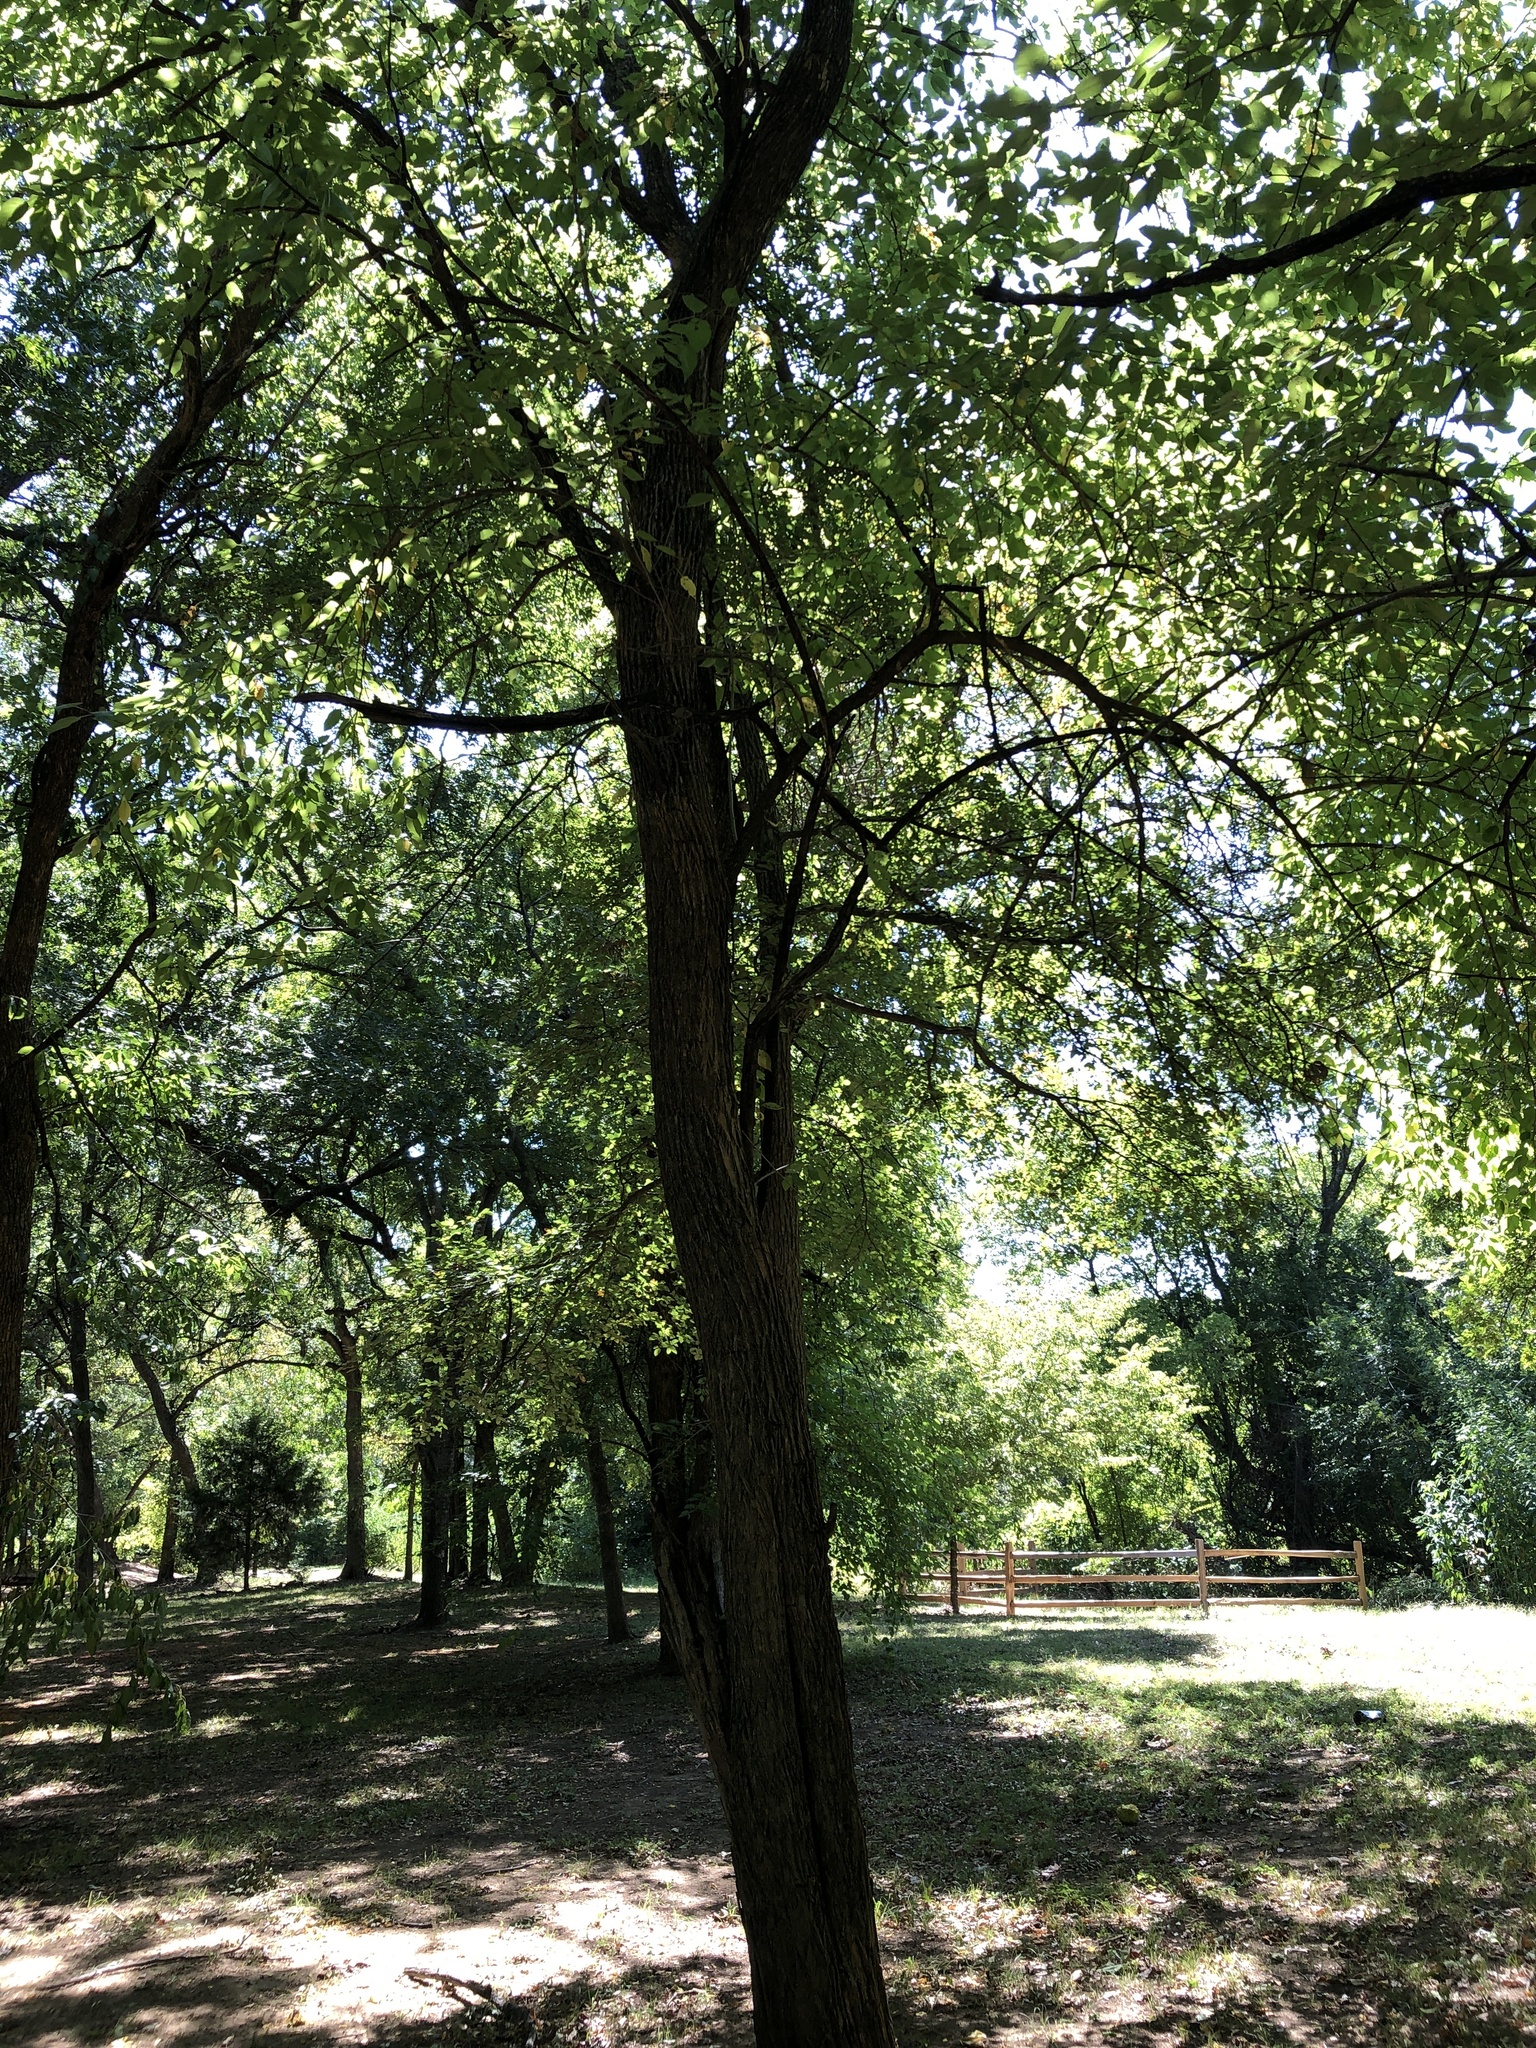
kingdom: Plantae
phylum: Tracheophyta
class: Magnoliopsida
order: Rosales
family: Moraceae
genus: Maclura
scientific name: Maclura pomifera
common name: Osage-orange
